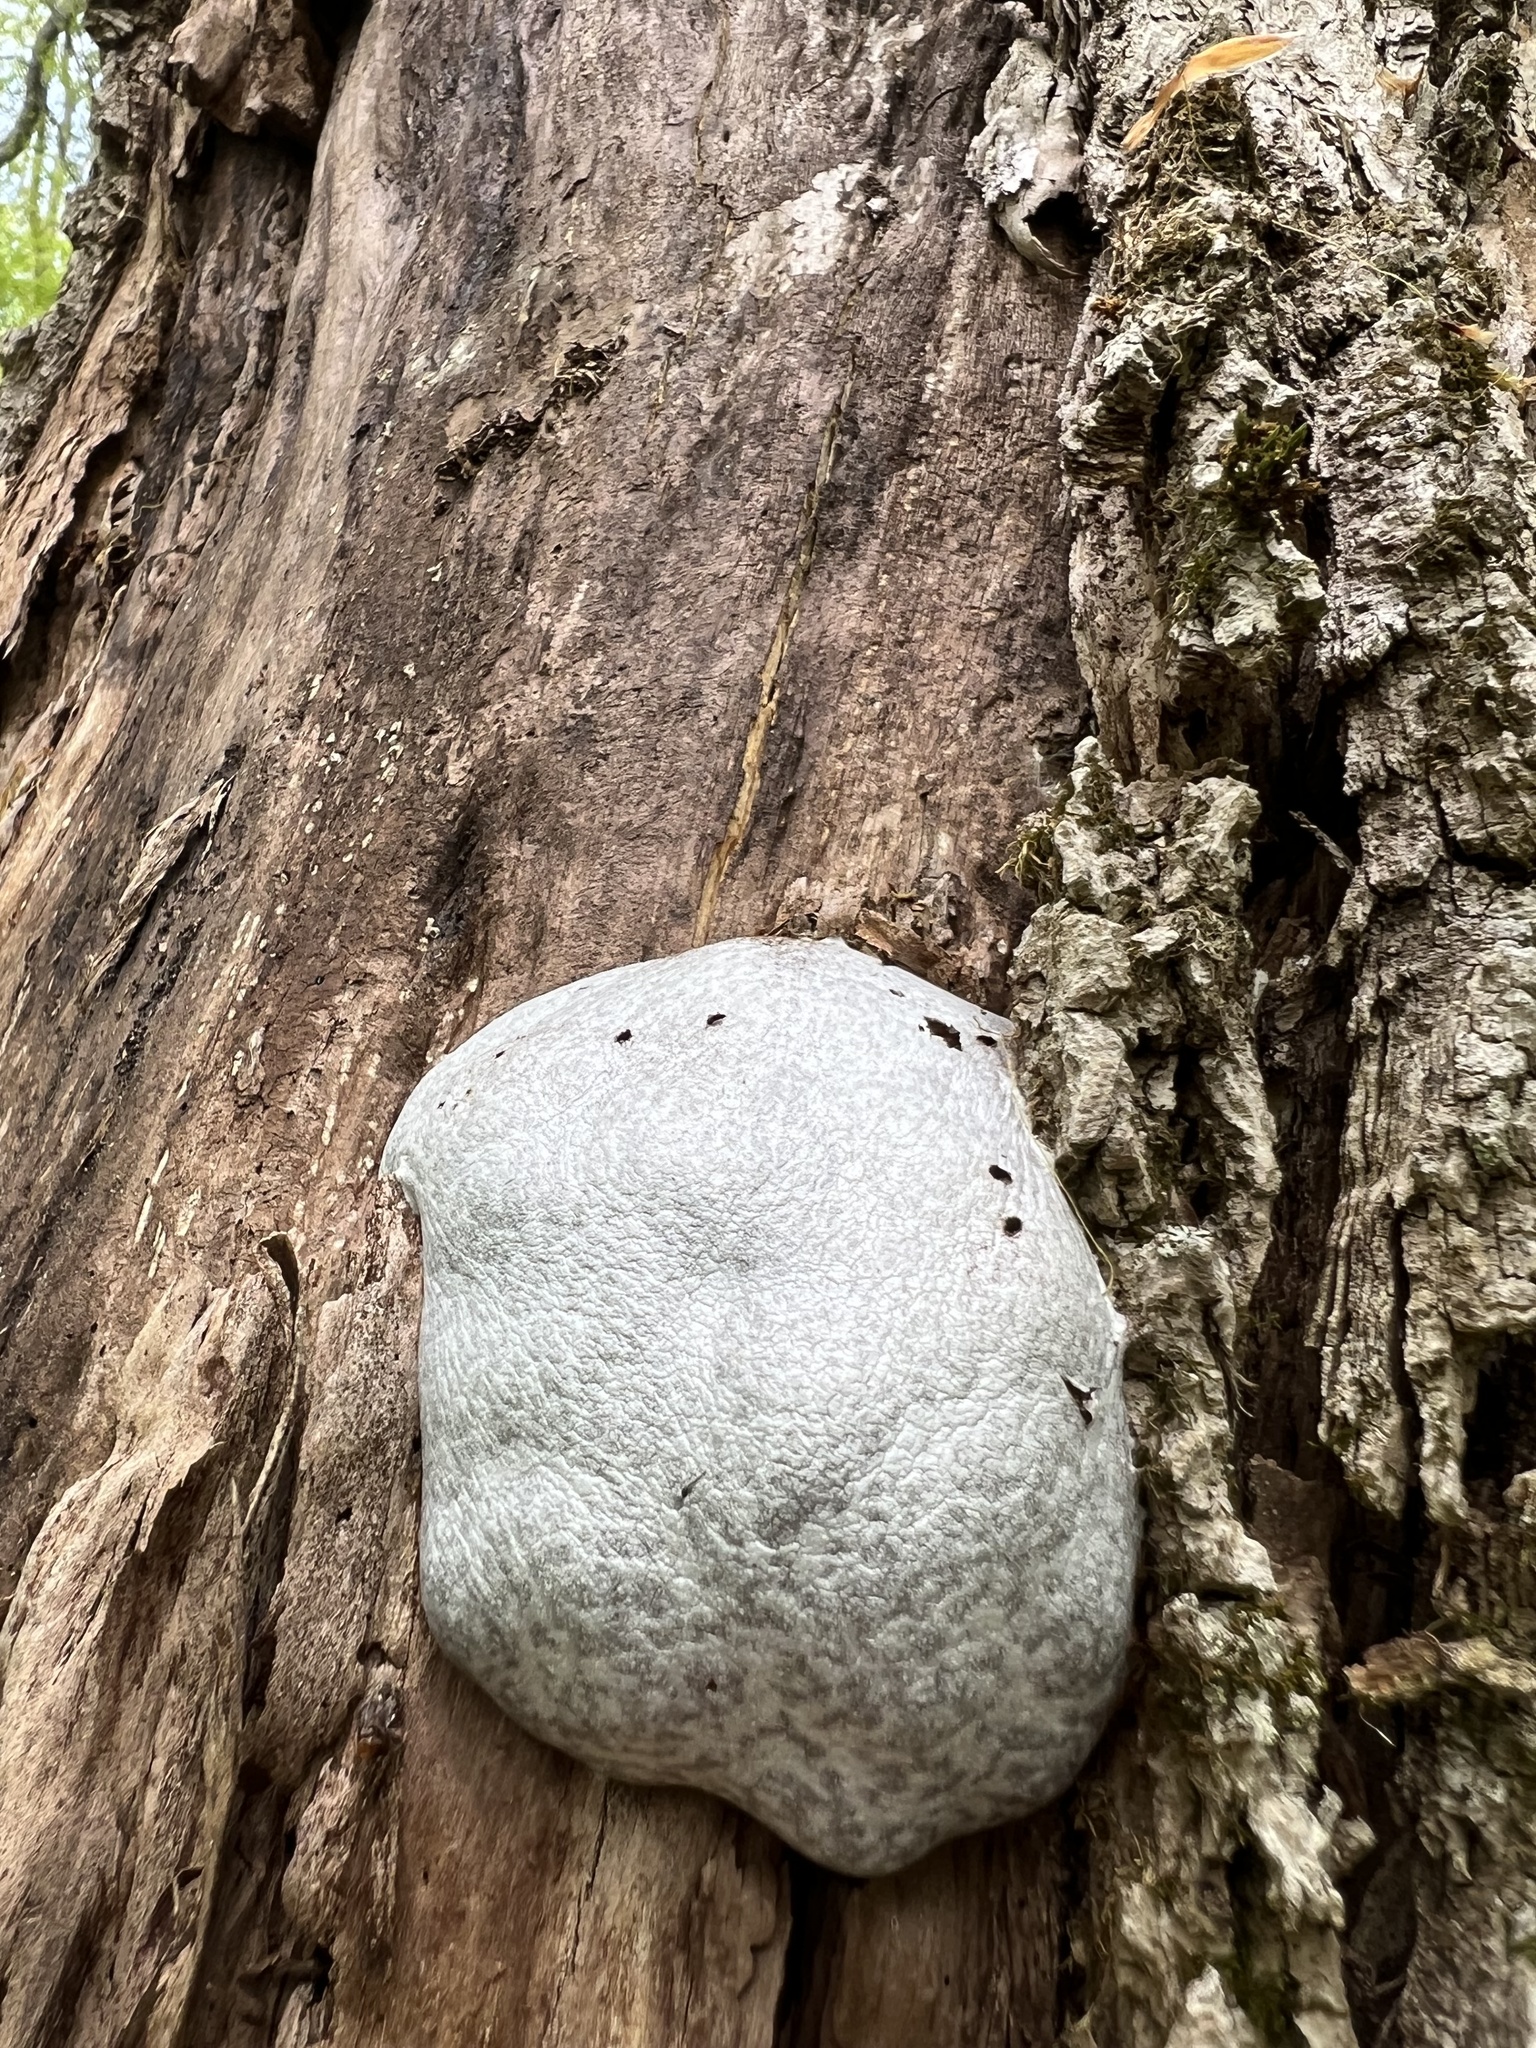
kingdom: Protozoa
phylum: Mycetozoa
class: Myxomycetes
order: Cribrariales
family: Tubiferaceae
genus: Reticularia
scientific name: Reticularia lycoperdon
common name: False puffball
